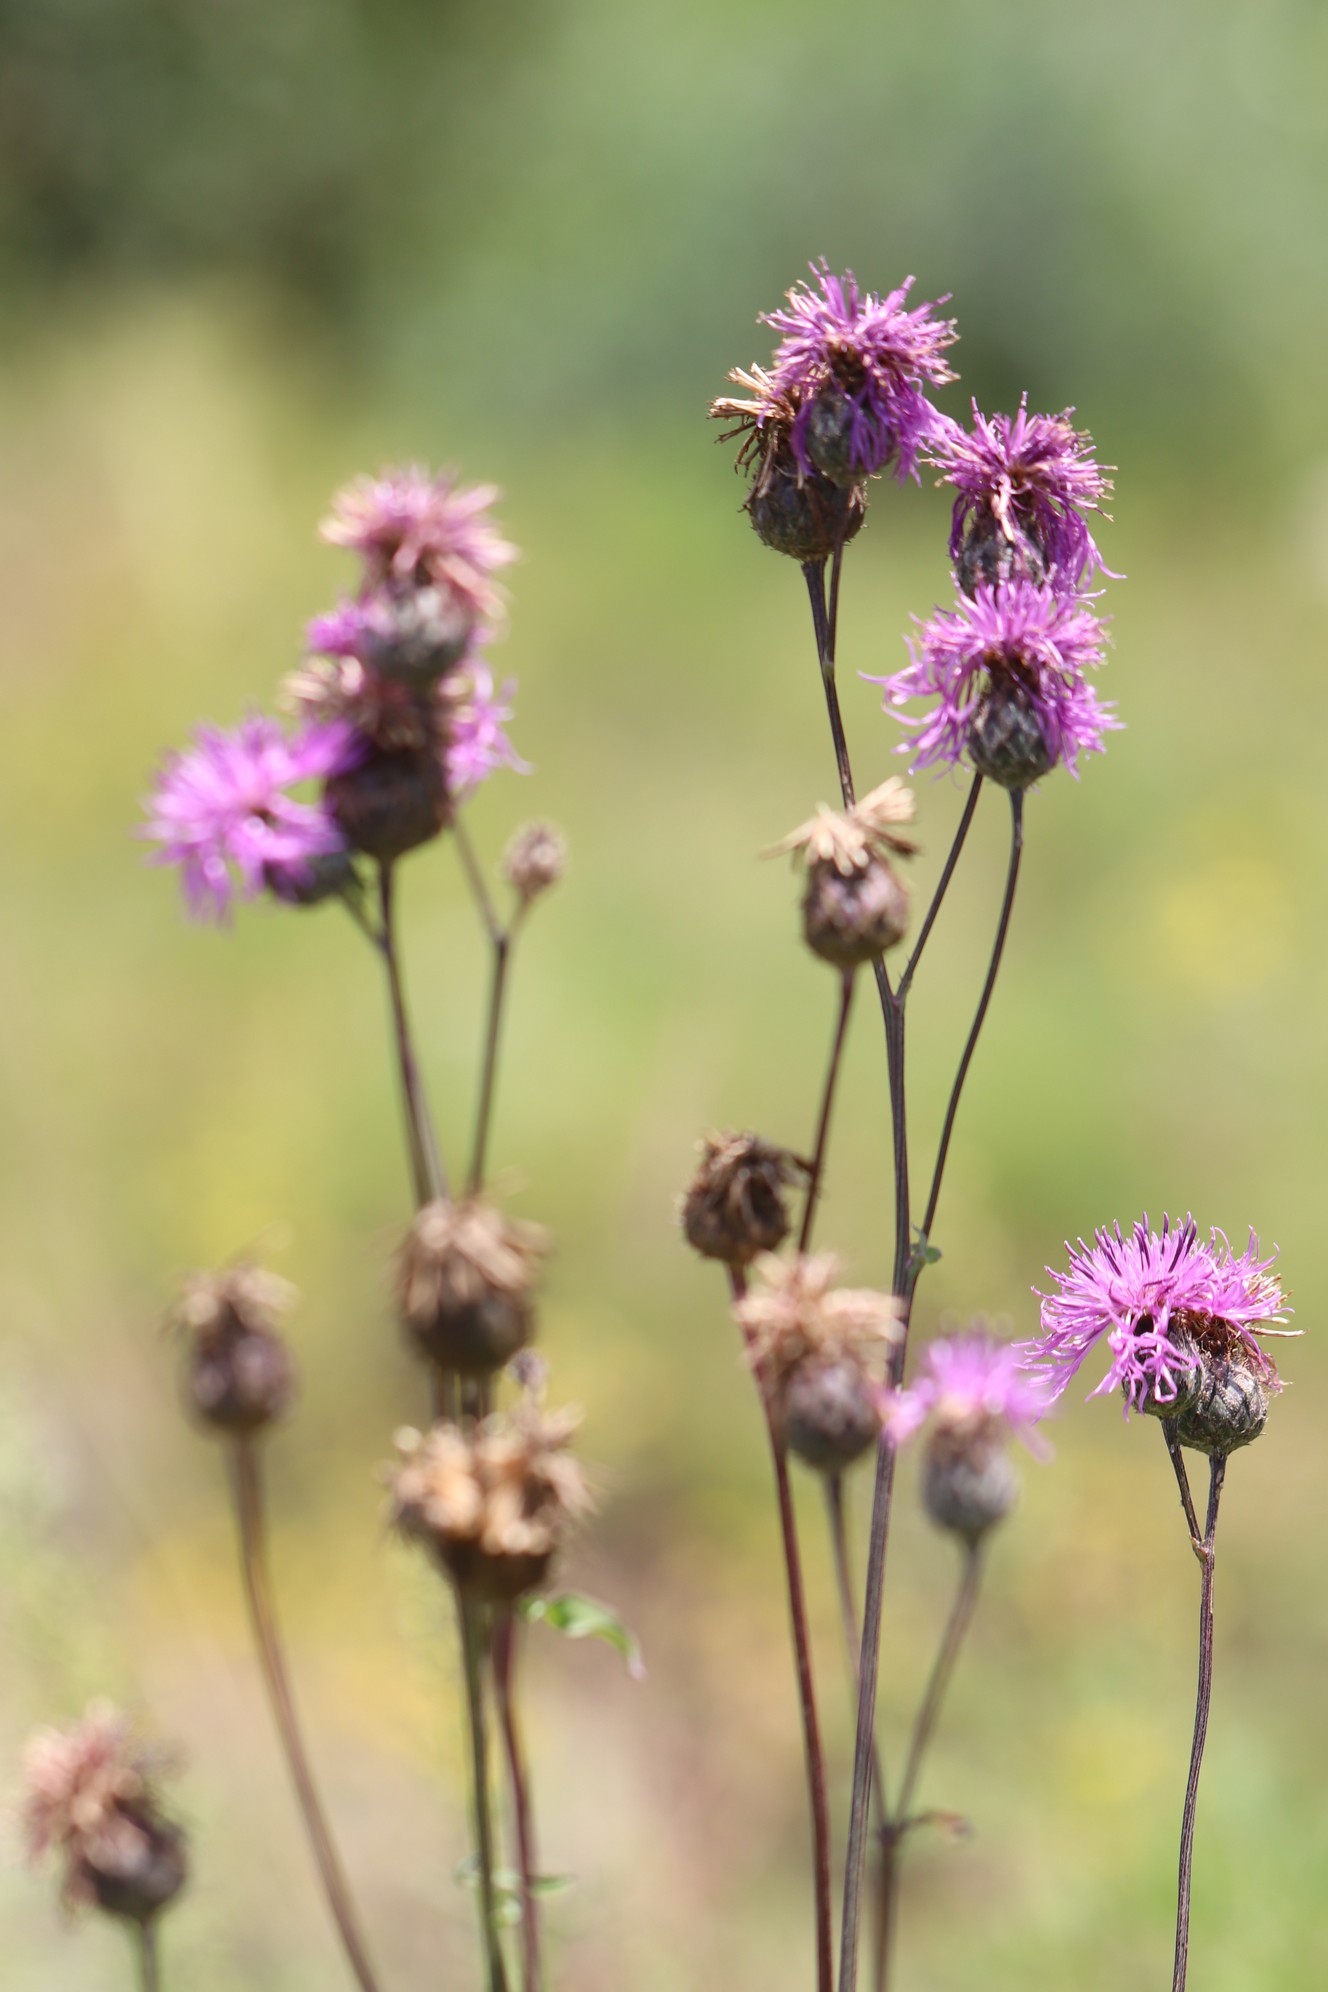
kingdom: Plantae
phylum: Tracheophyta
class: Magnoliopsida
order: Asterales
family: Asteraceae
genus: Centaurea
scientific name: Centaurea scabiosa
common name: Greater knapweed
